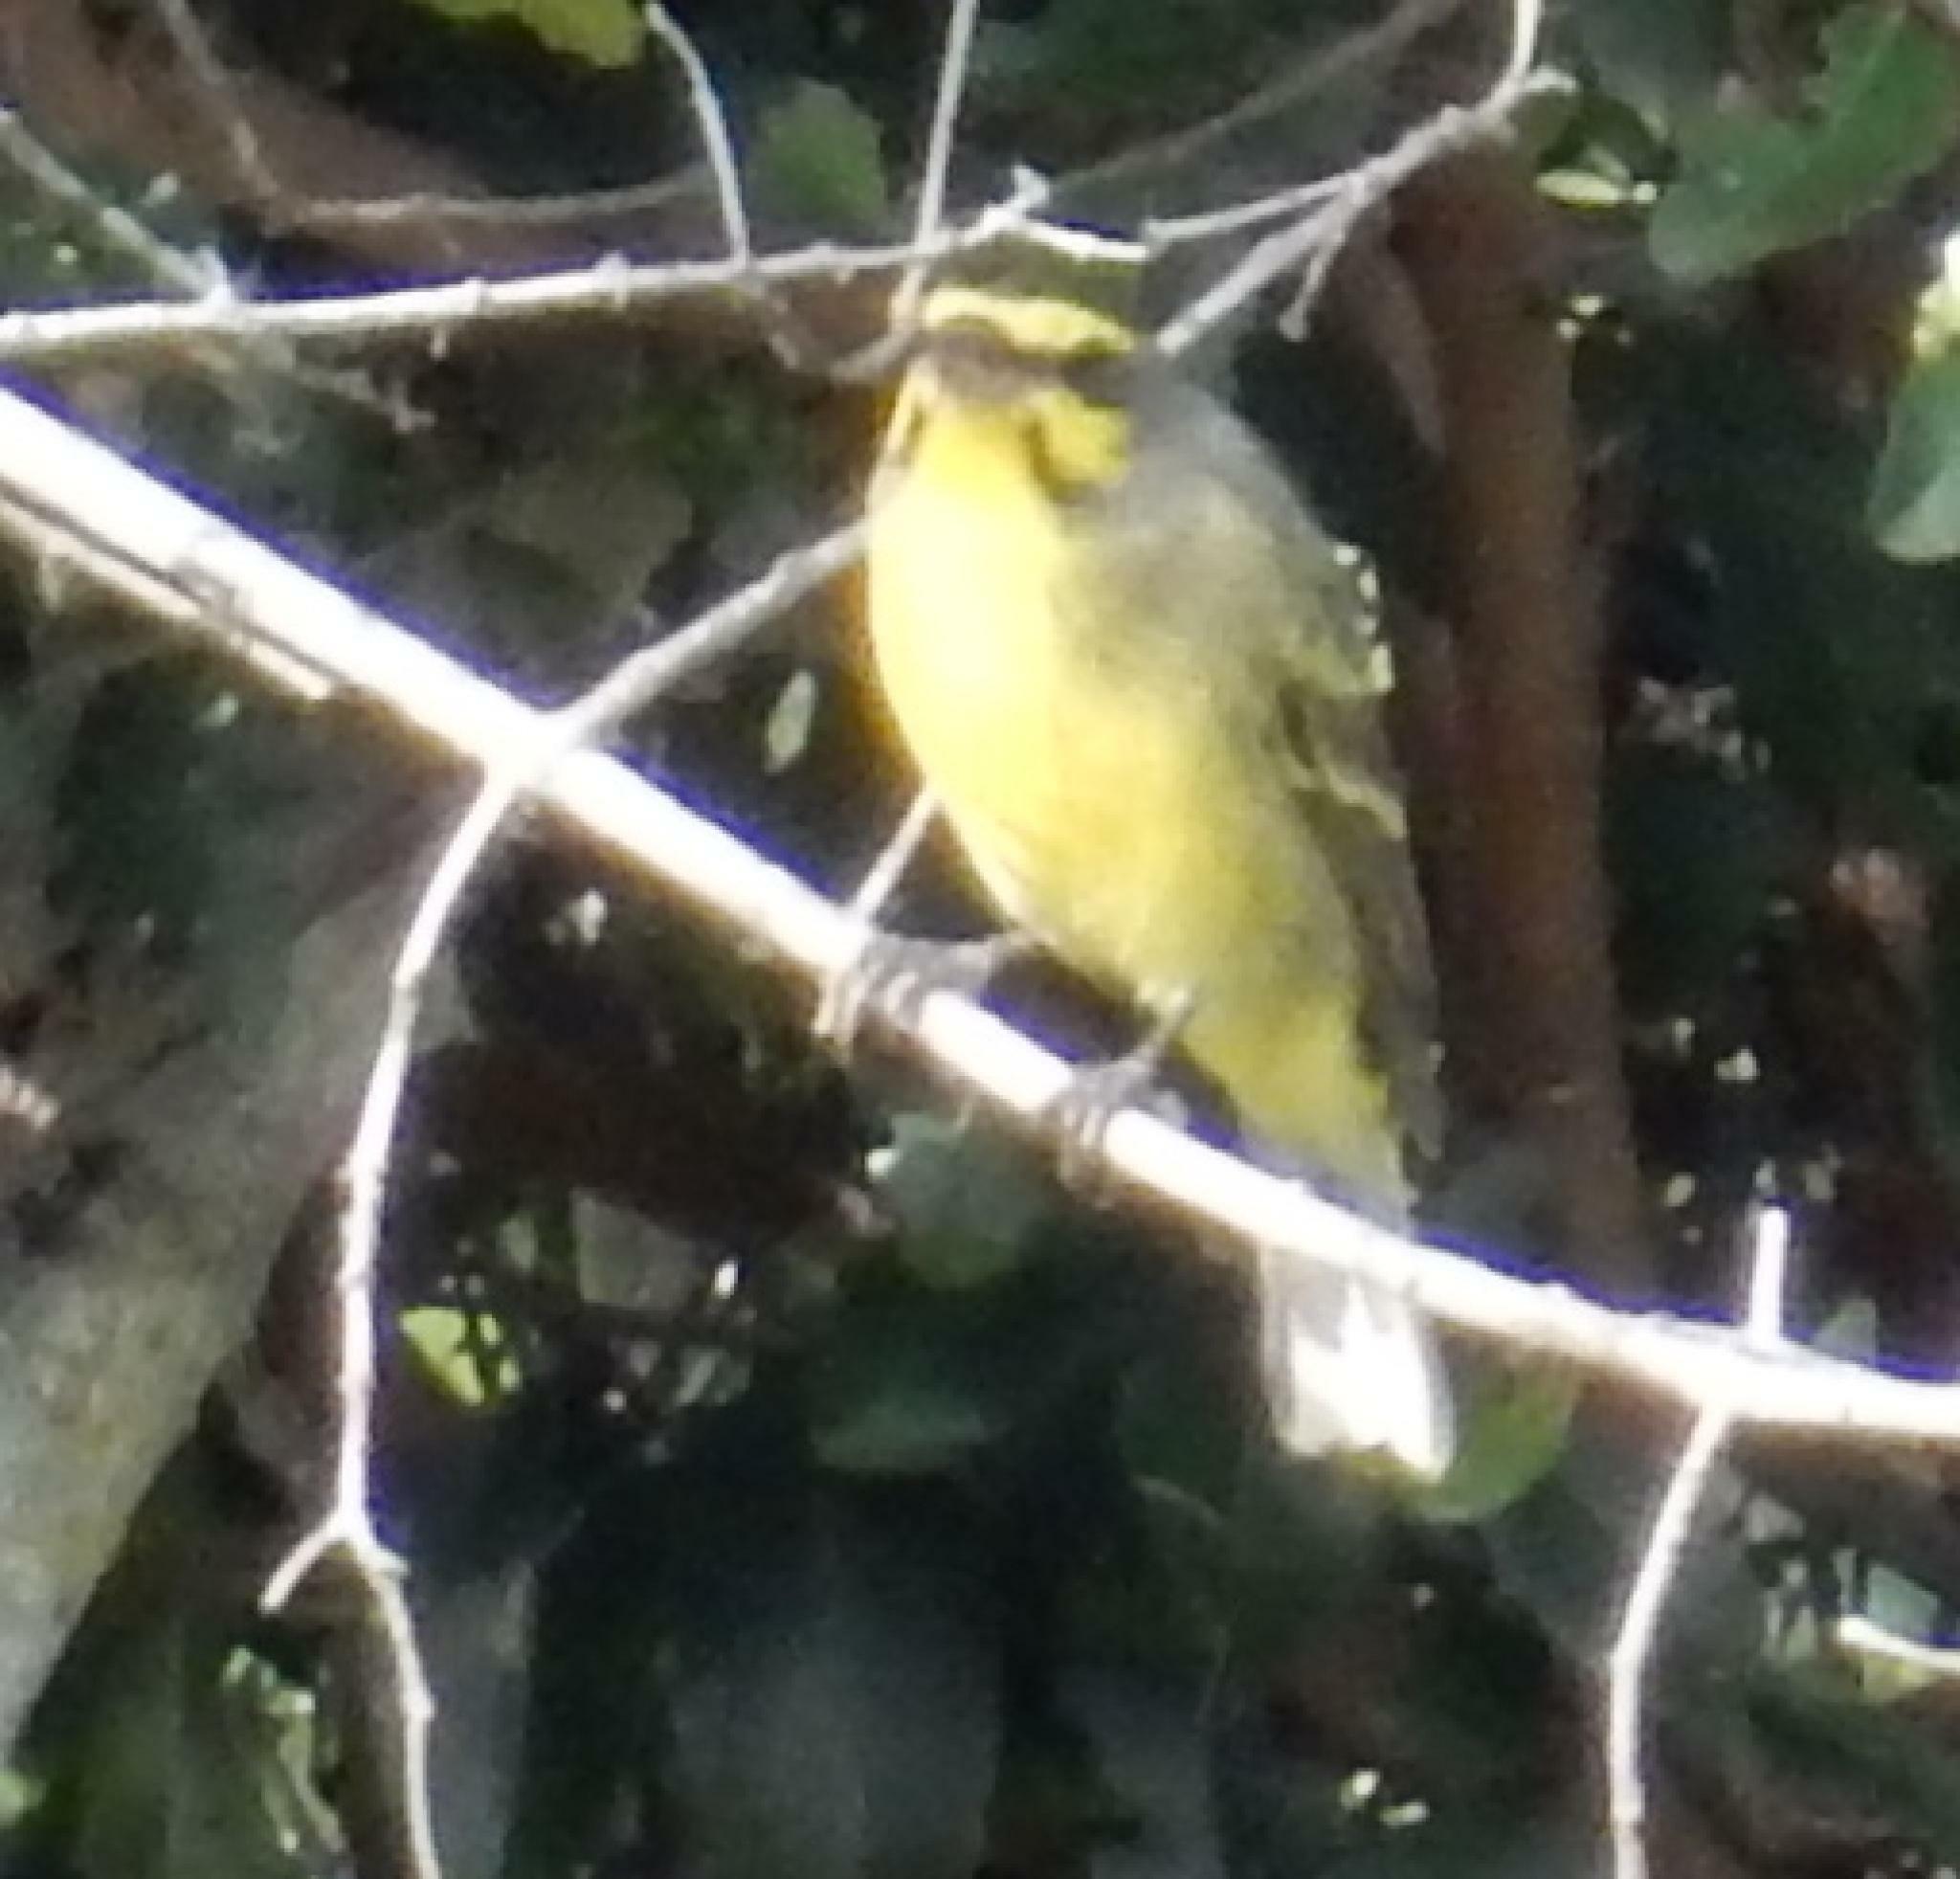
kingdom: Animalia
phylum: Chordata
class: Aves
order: Passeriformes
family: Fringillidae
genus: Crithagra
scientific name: Crithagra mozambica
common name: Yellow-fronted canary
